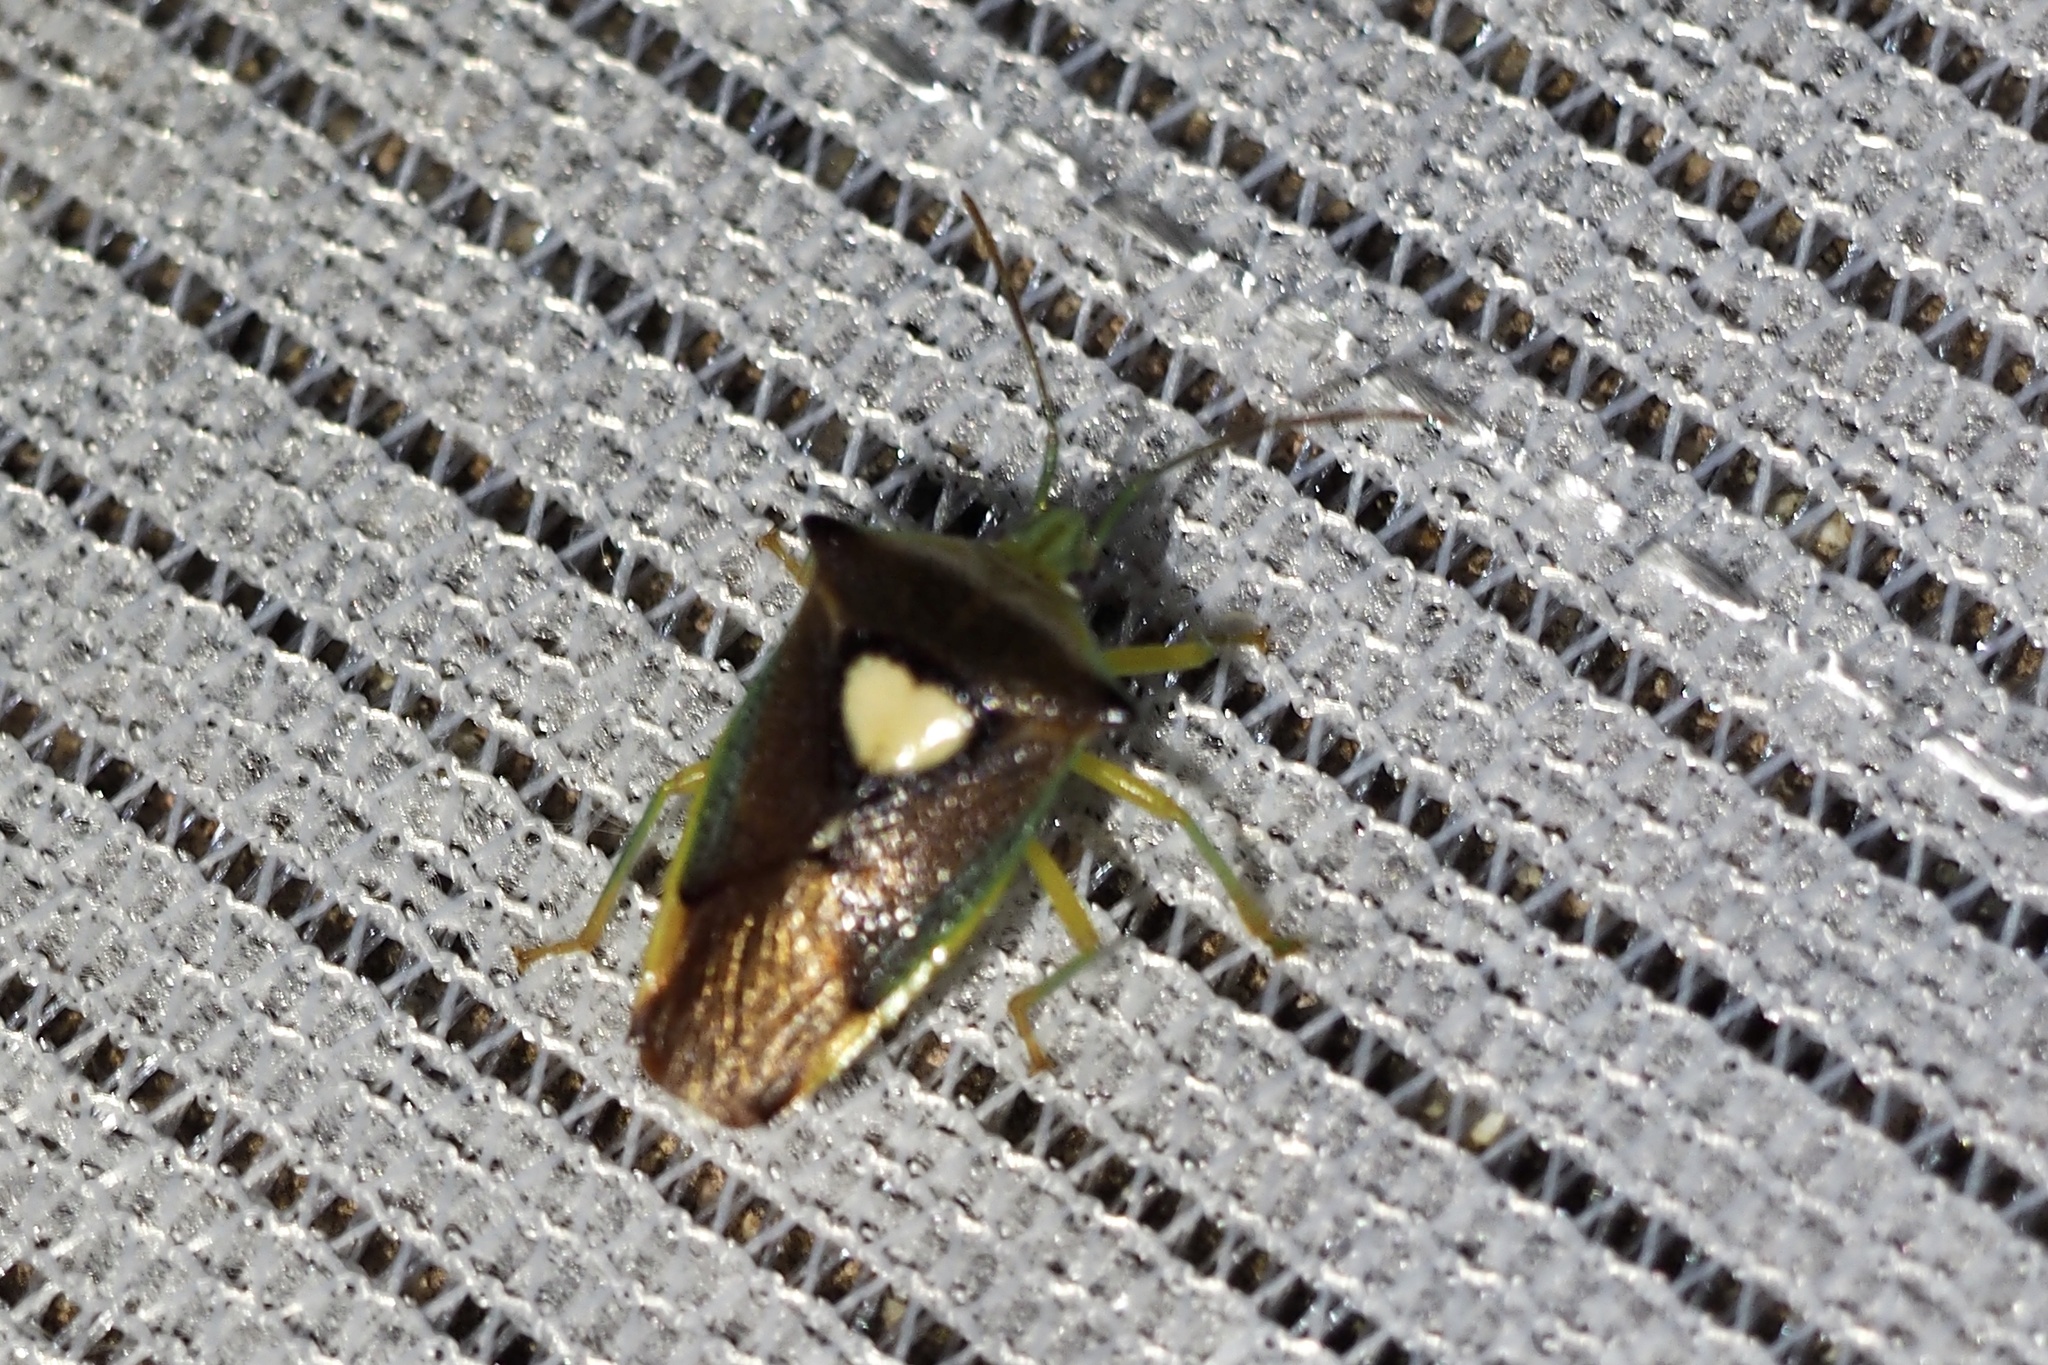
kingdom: Animalia
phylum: Arthropoda
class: Insecta
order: Hemiptera
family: Acanthosomatidae
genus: Sastragala
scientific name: Sastragala esakii
